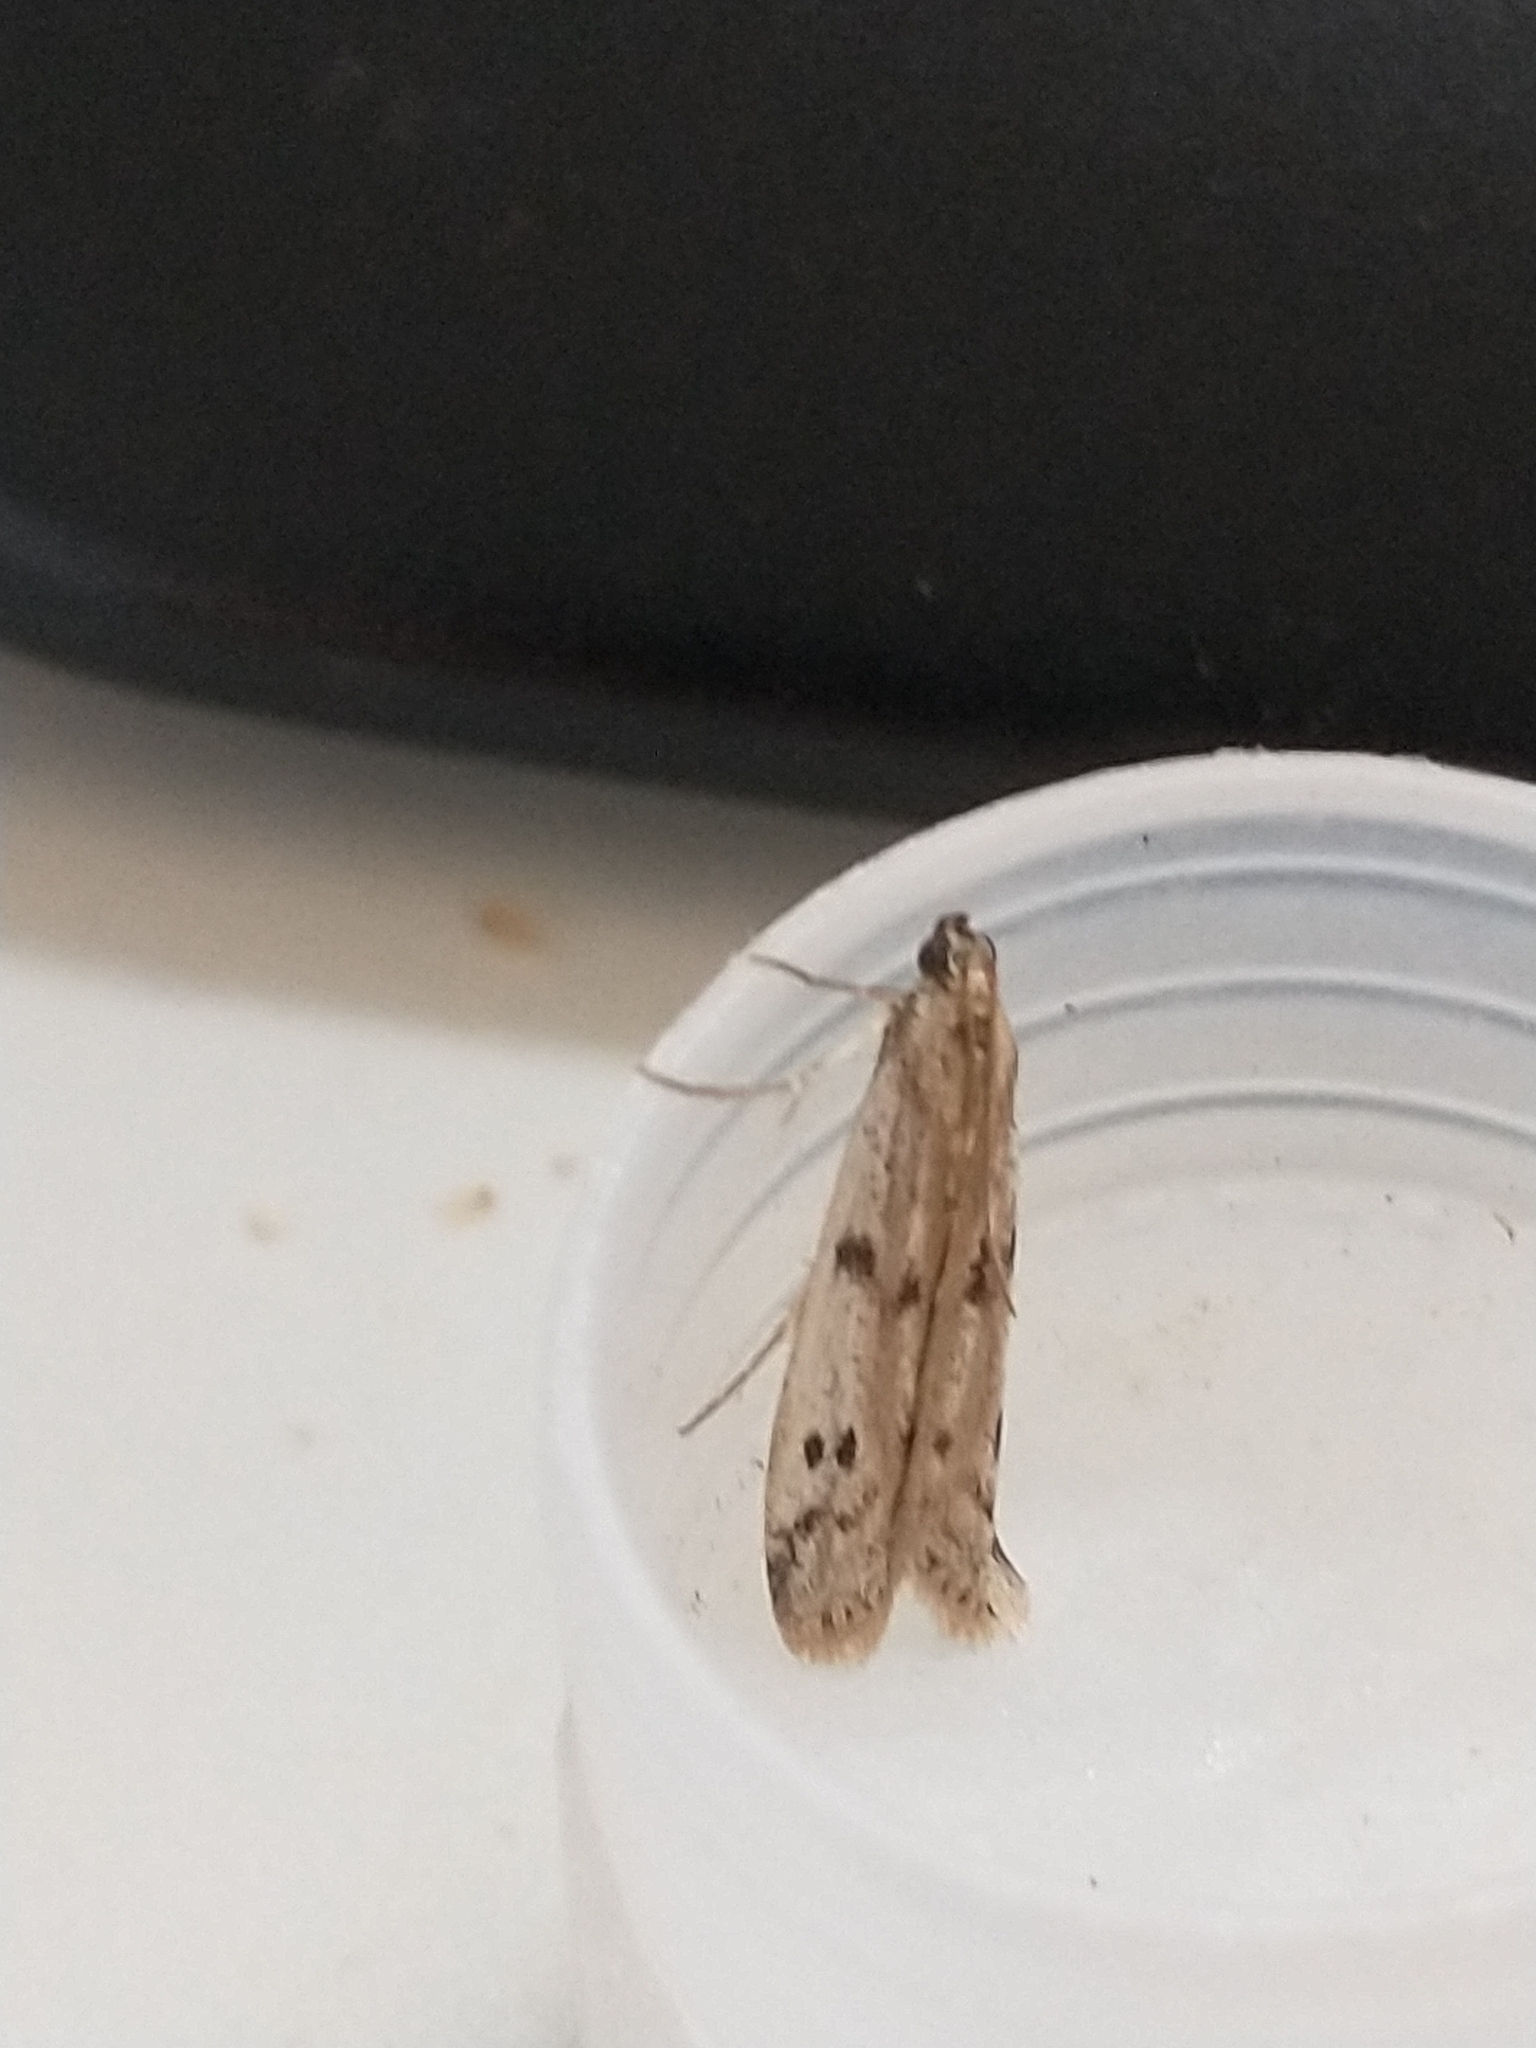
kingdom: Animalia
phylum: Arthropoda
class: Insecta
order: Lepidoptera
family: Pyralidae
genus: Phycitodes
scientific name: Phycitodes binaevella
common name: Ermine knot-horn
